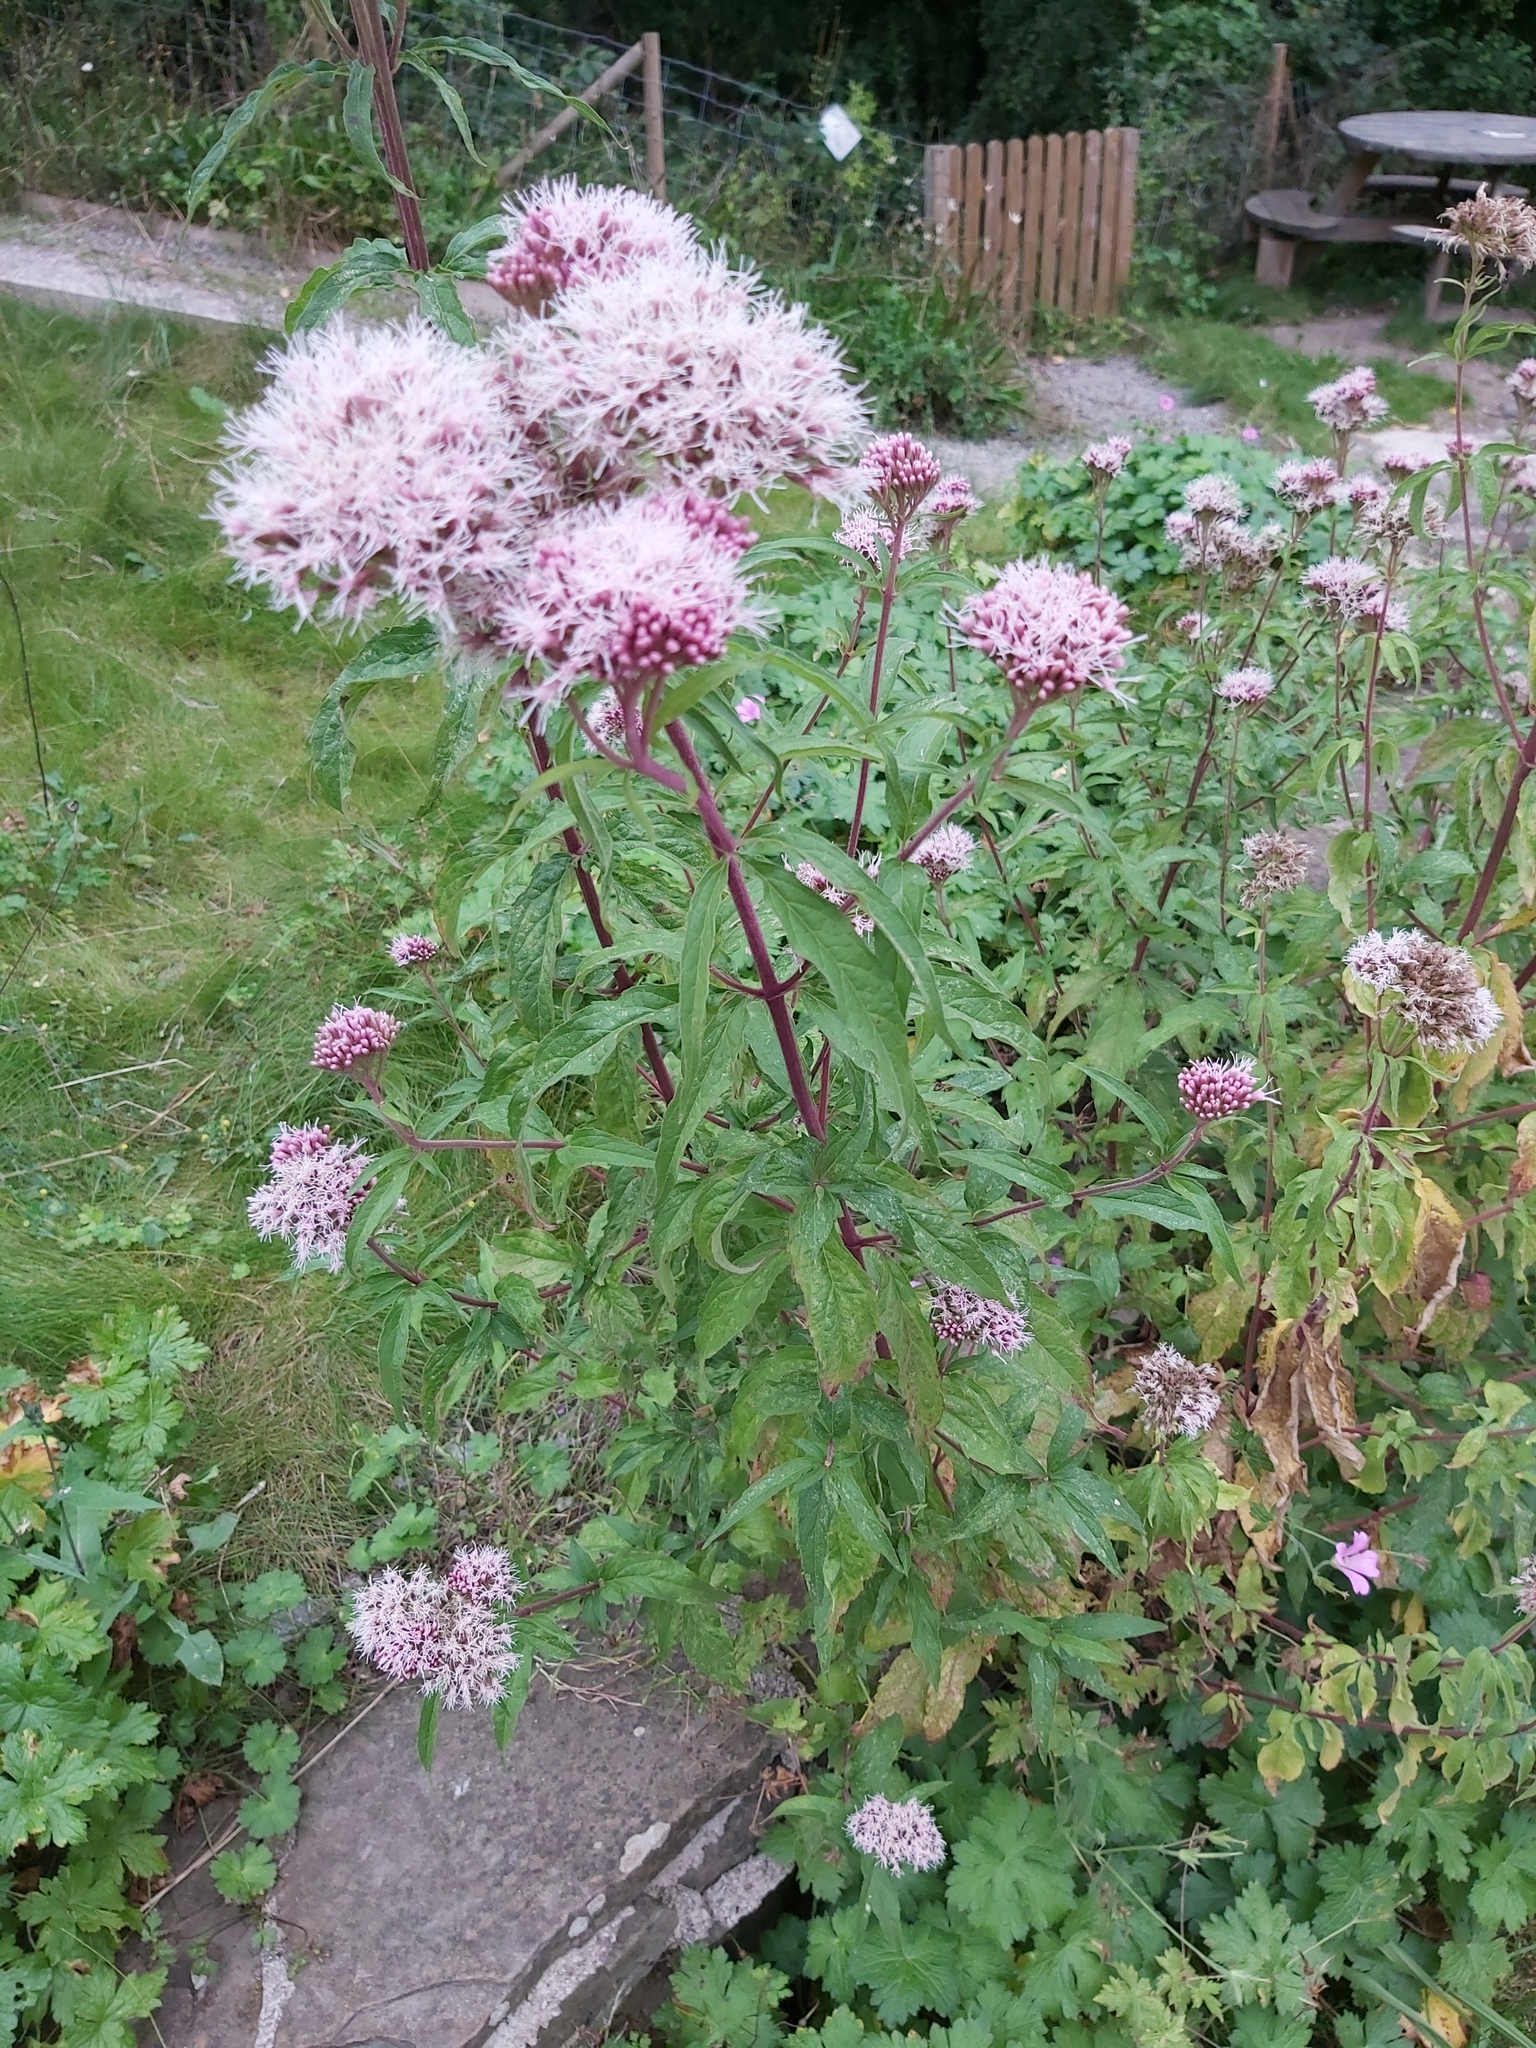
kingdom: Plantae
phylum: Tracheophyta
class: Magnoliopsida
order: Asterales
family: Asteraceae
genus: Eupatorium
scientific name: Eupatorium cannabinum
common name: Hemp-agrimony
